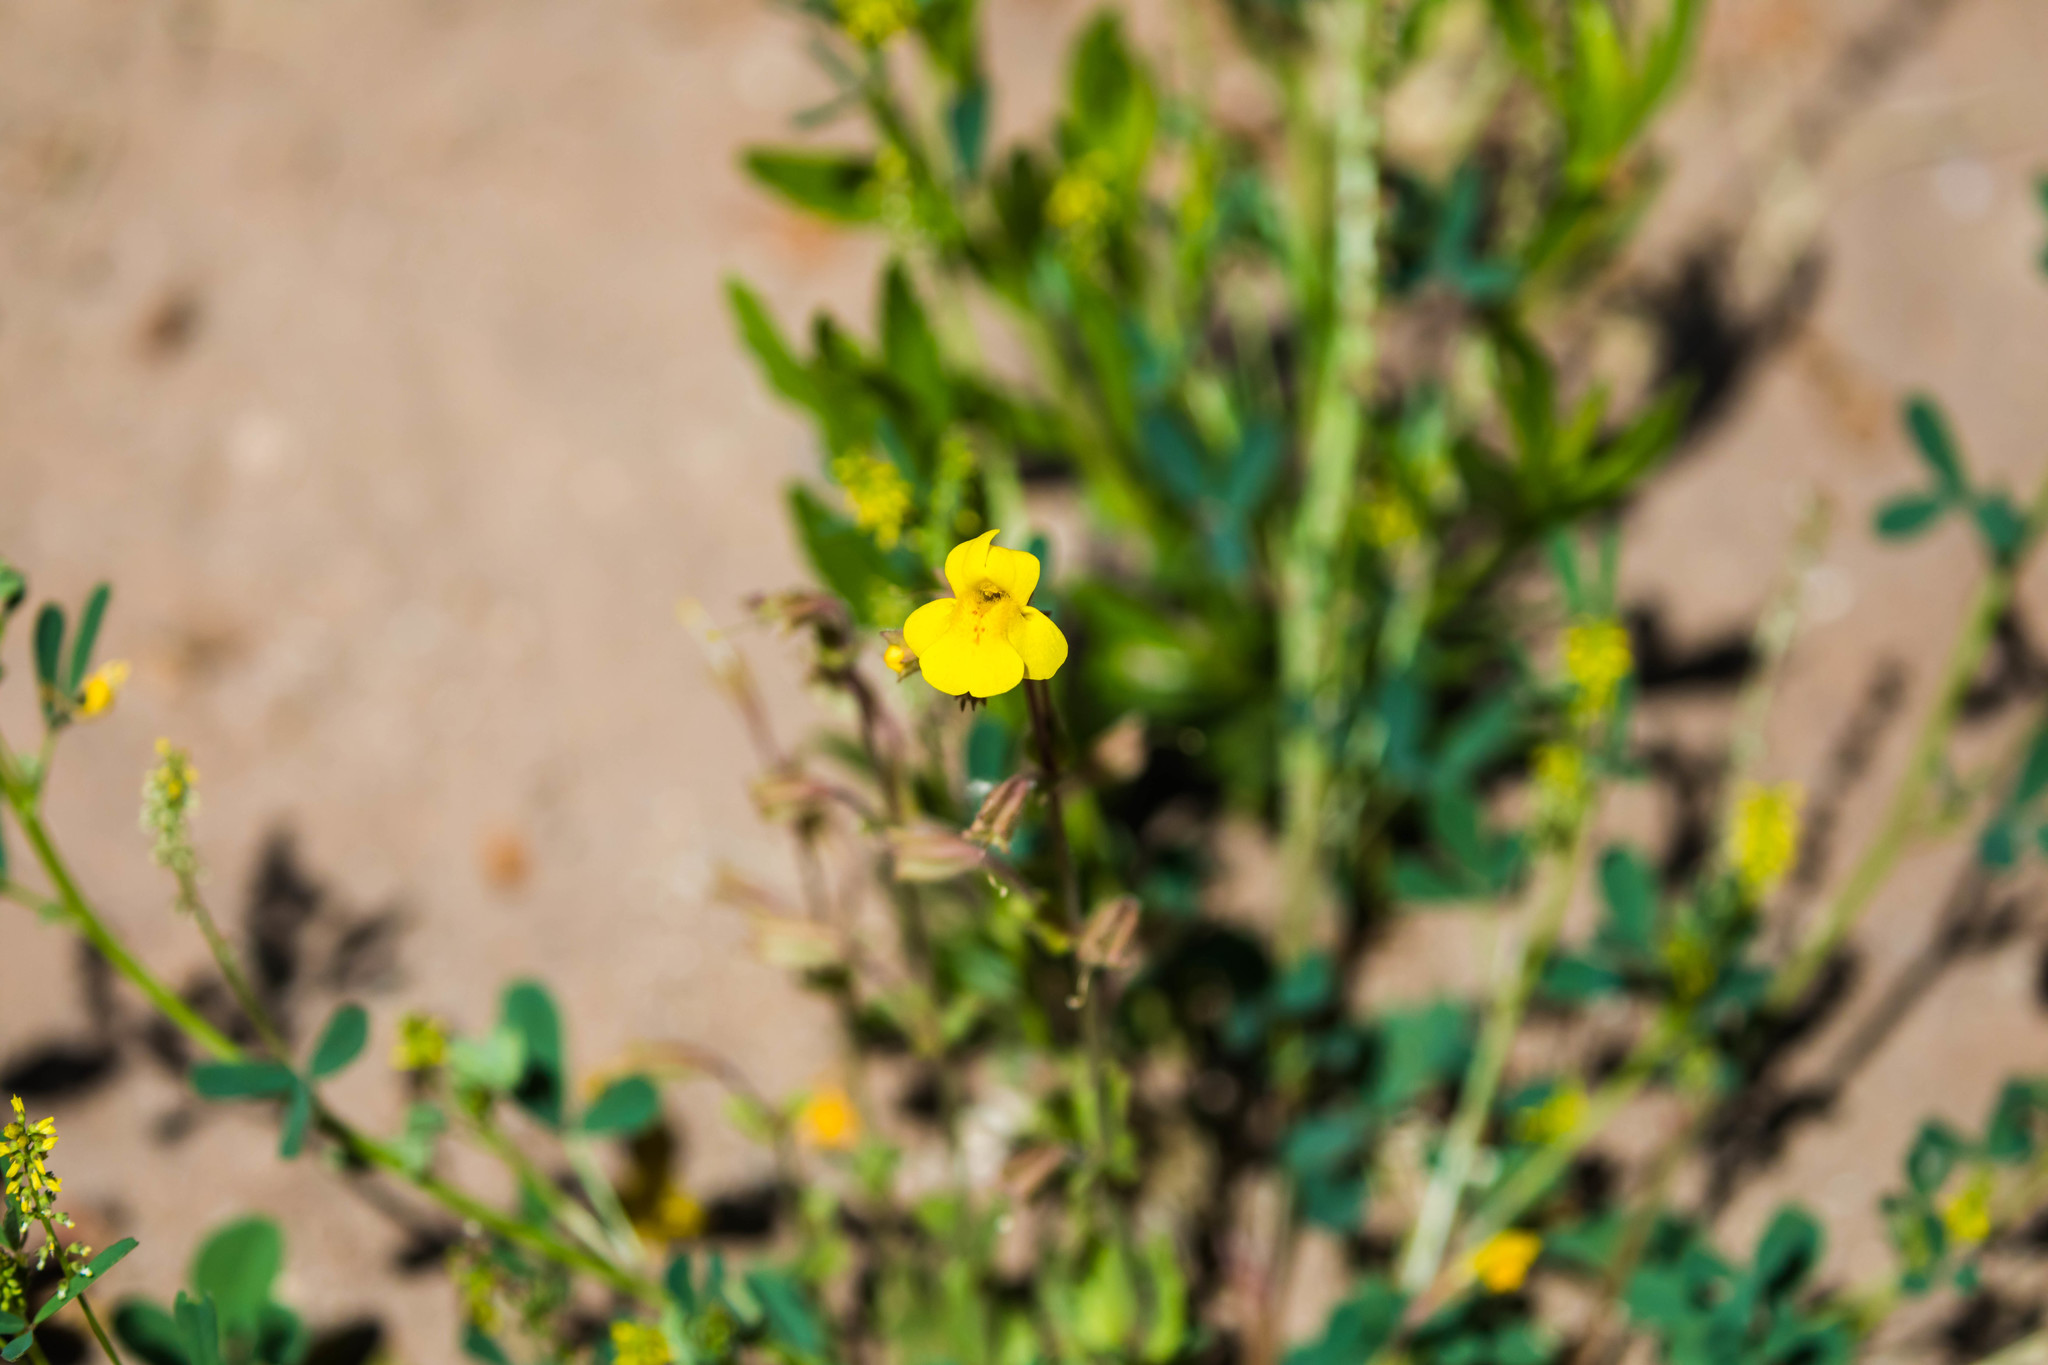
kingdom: Plantae
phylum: Tracheophyta
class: Magnoliopsida
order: Lamiales
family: Phrymaceae
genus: Erythranthe
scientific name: Erythranthe guttata
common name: Monkeyflower
